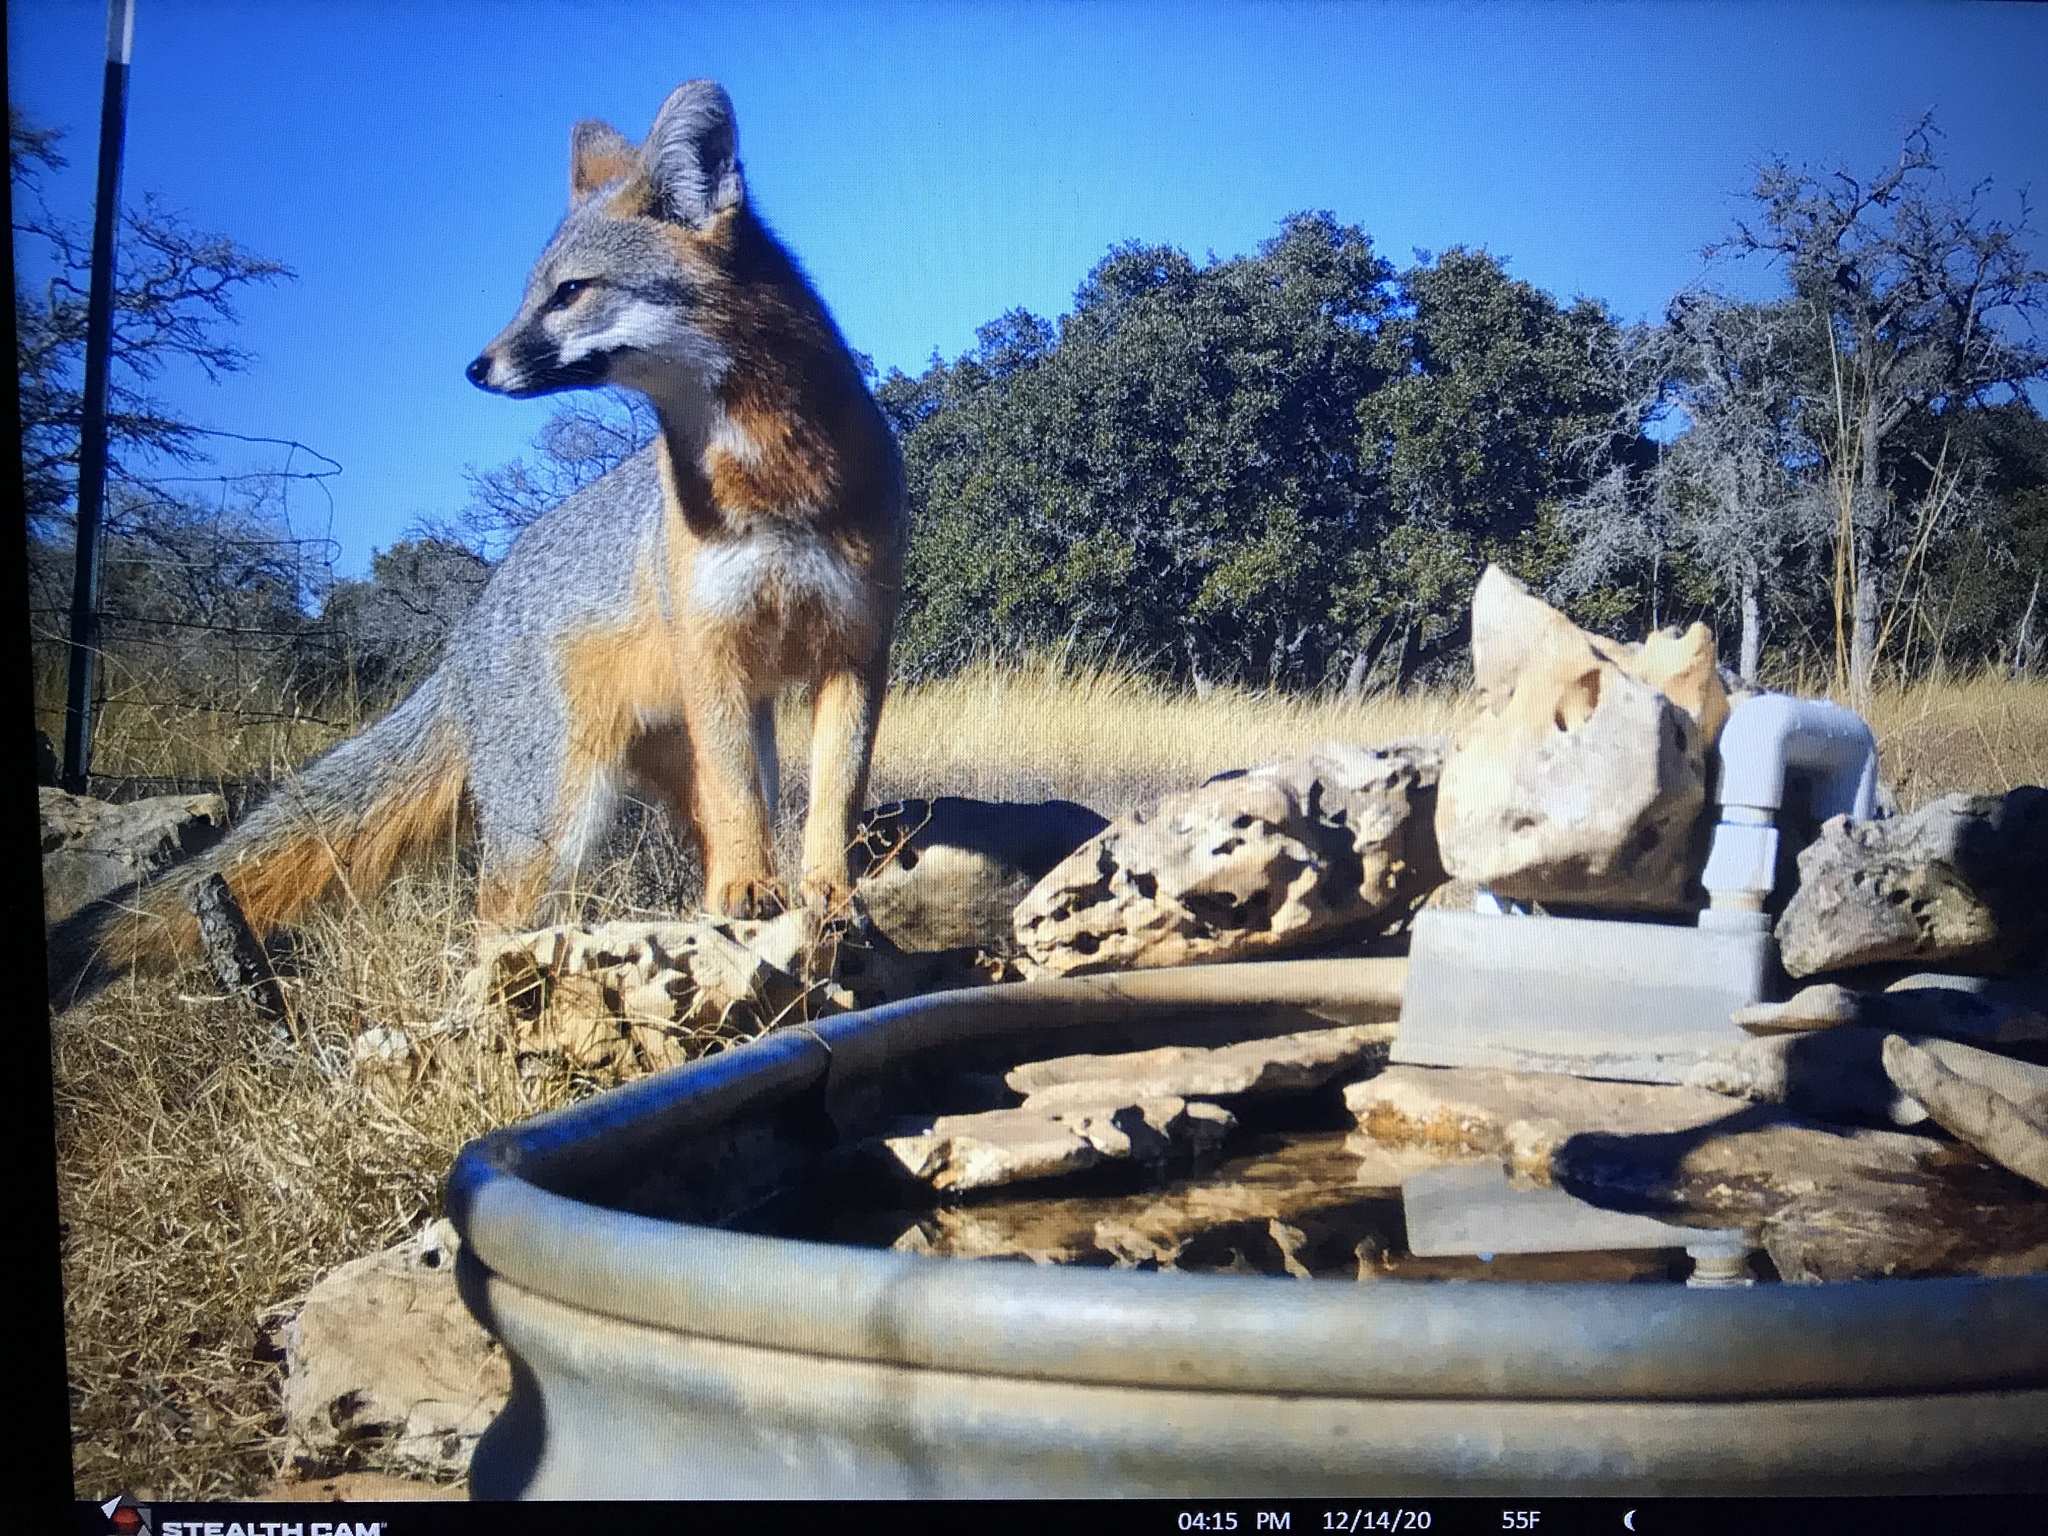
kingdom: Animalia
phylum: Chordata
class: Mammalia
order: Carnivora
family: Canidae
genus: Urocyon
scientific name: Urocyon cinereoargenteus
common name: Gray fox
